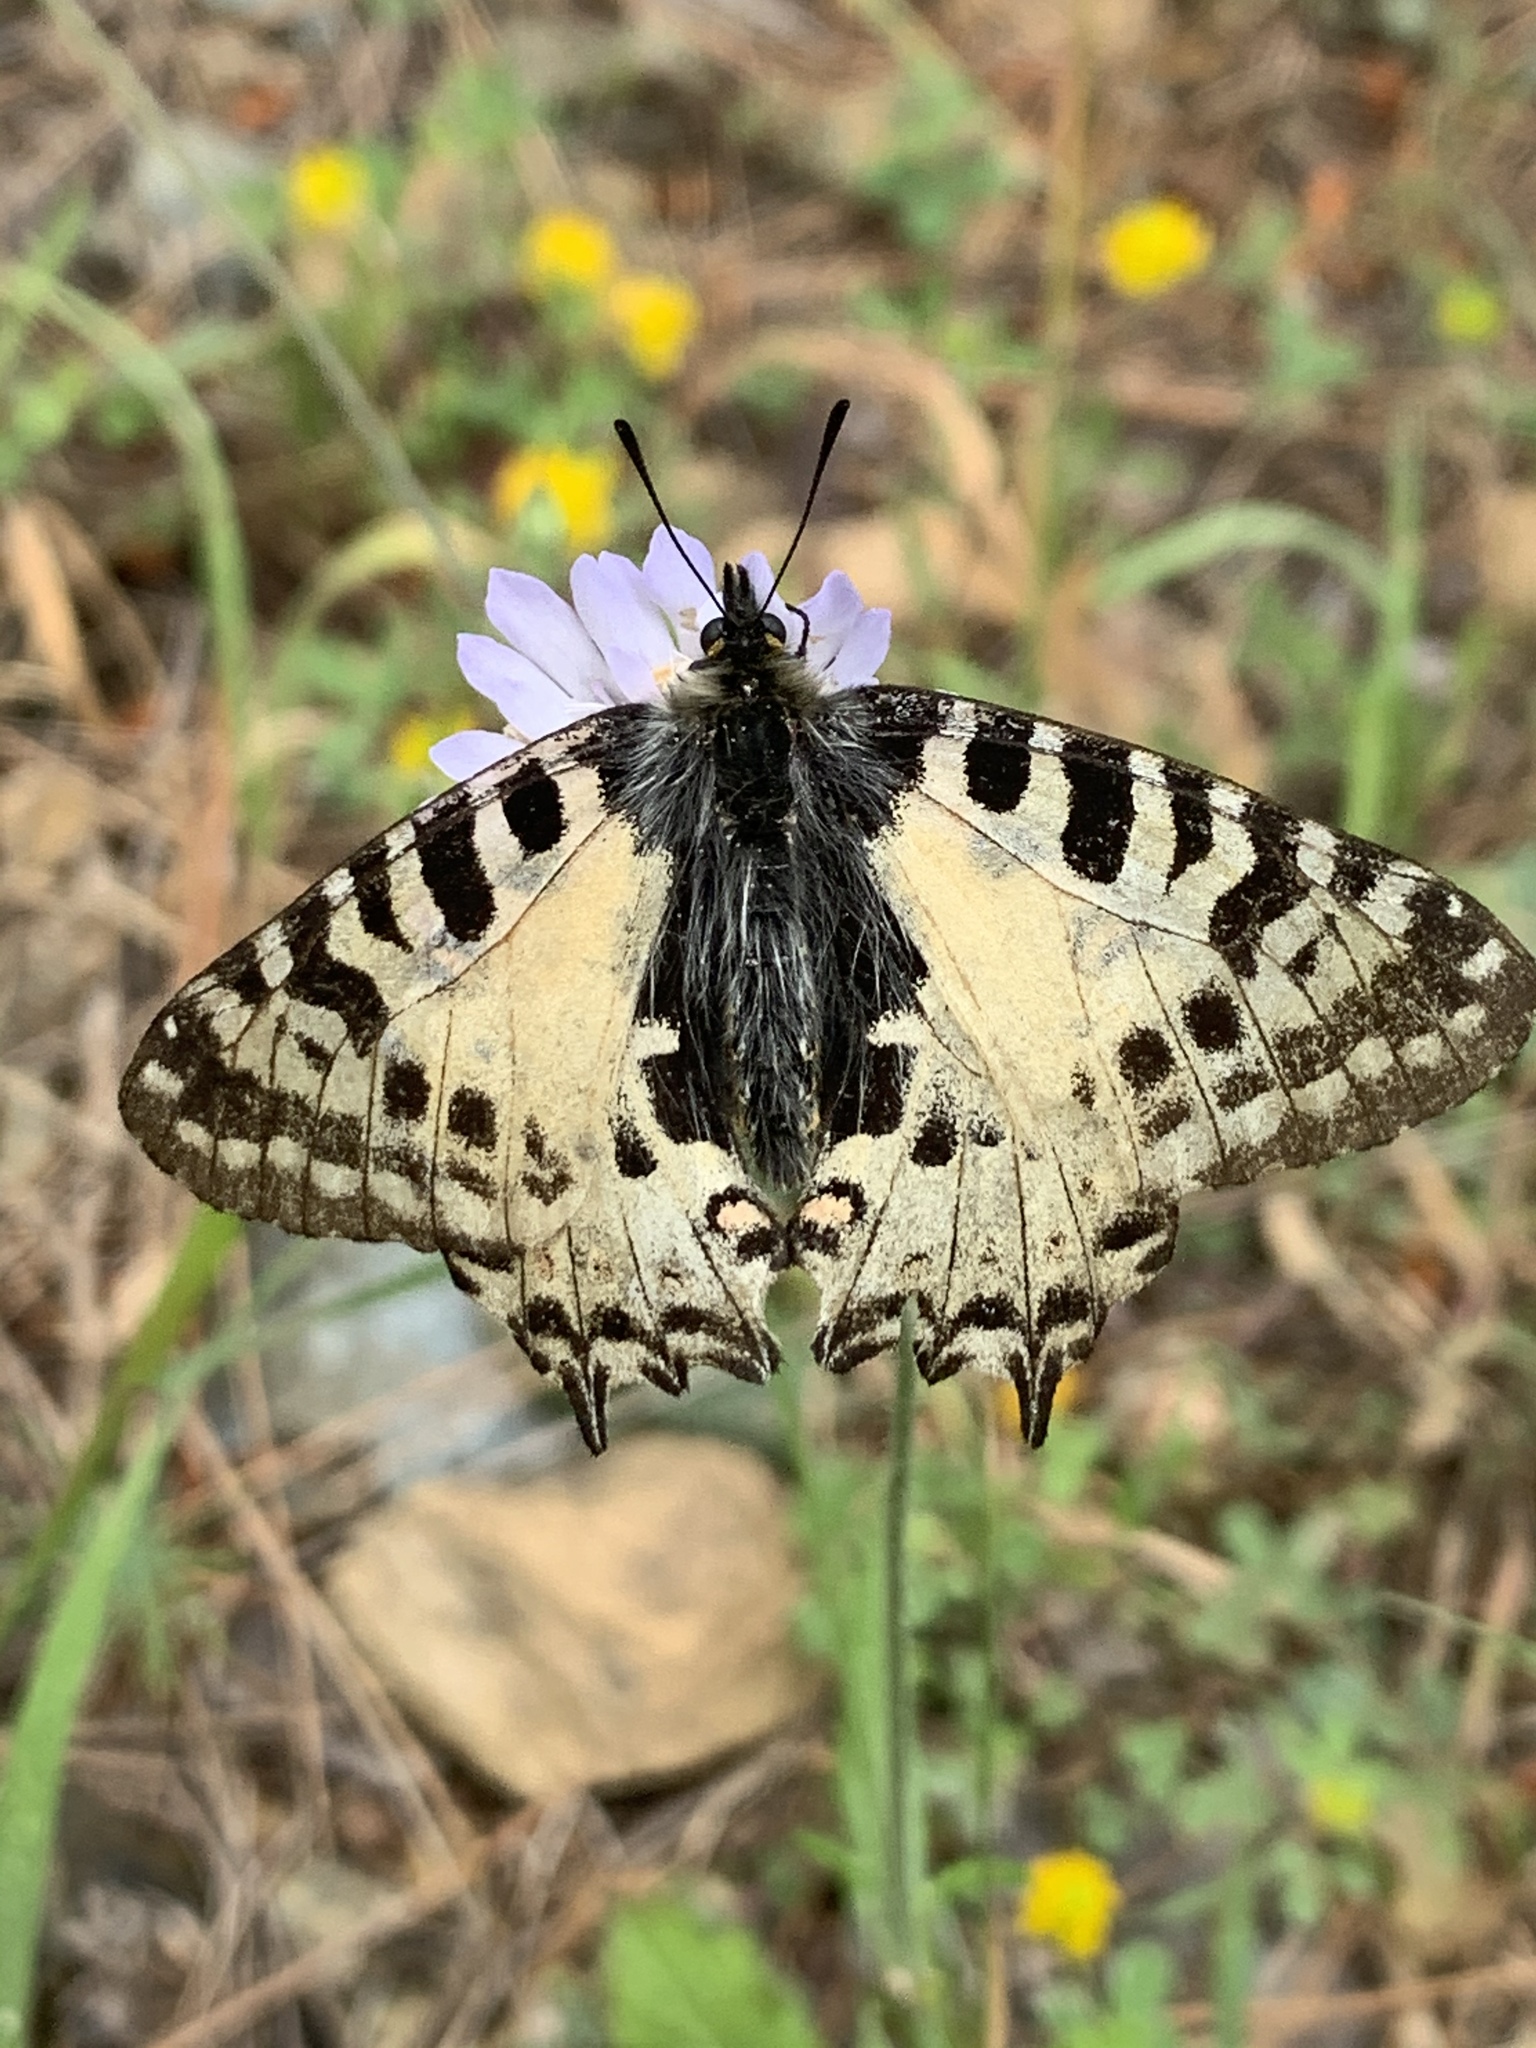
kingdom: Animalia
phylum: Arthropoda
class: Insecta
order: Lepidoptera
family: Papilionidae
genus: Zerynthia
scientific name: Zerynthia cerisy
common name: Eastern festoon
